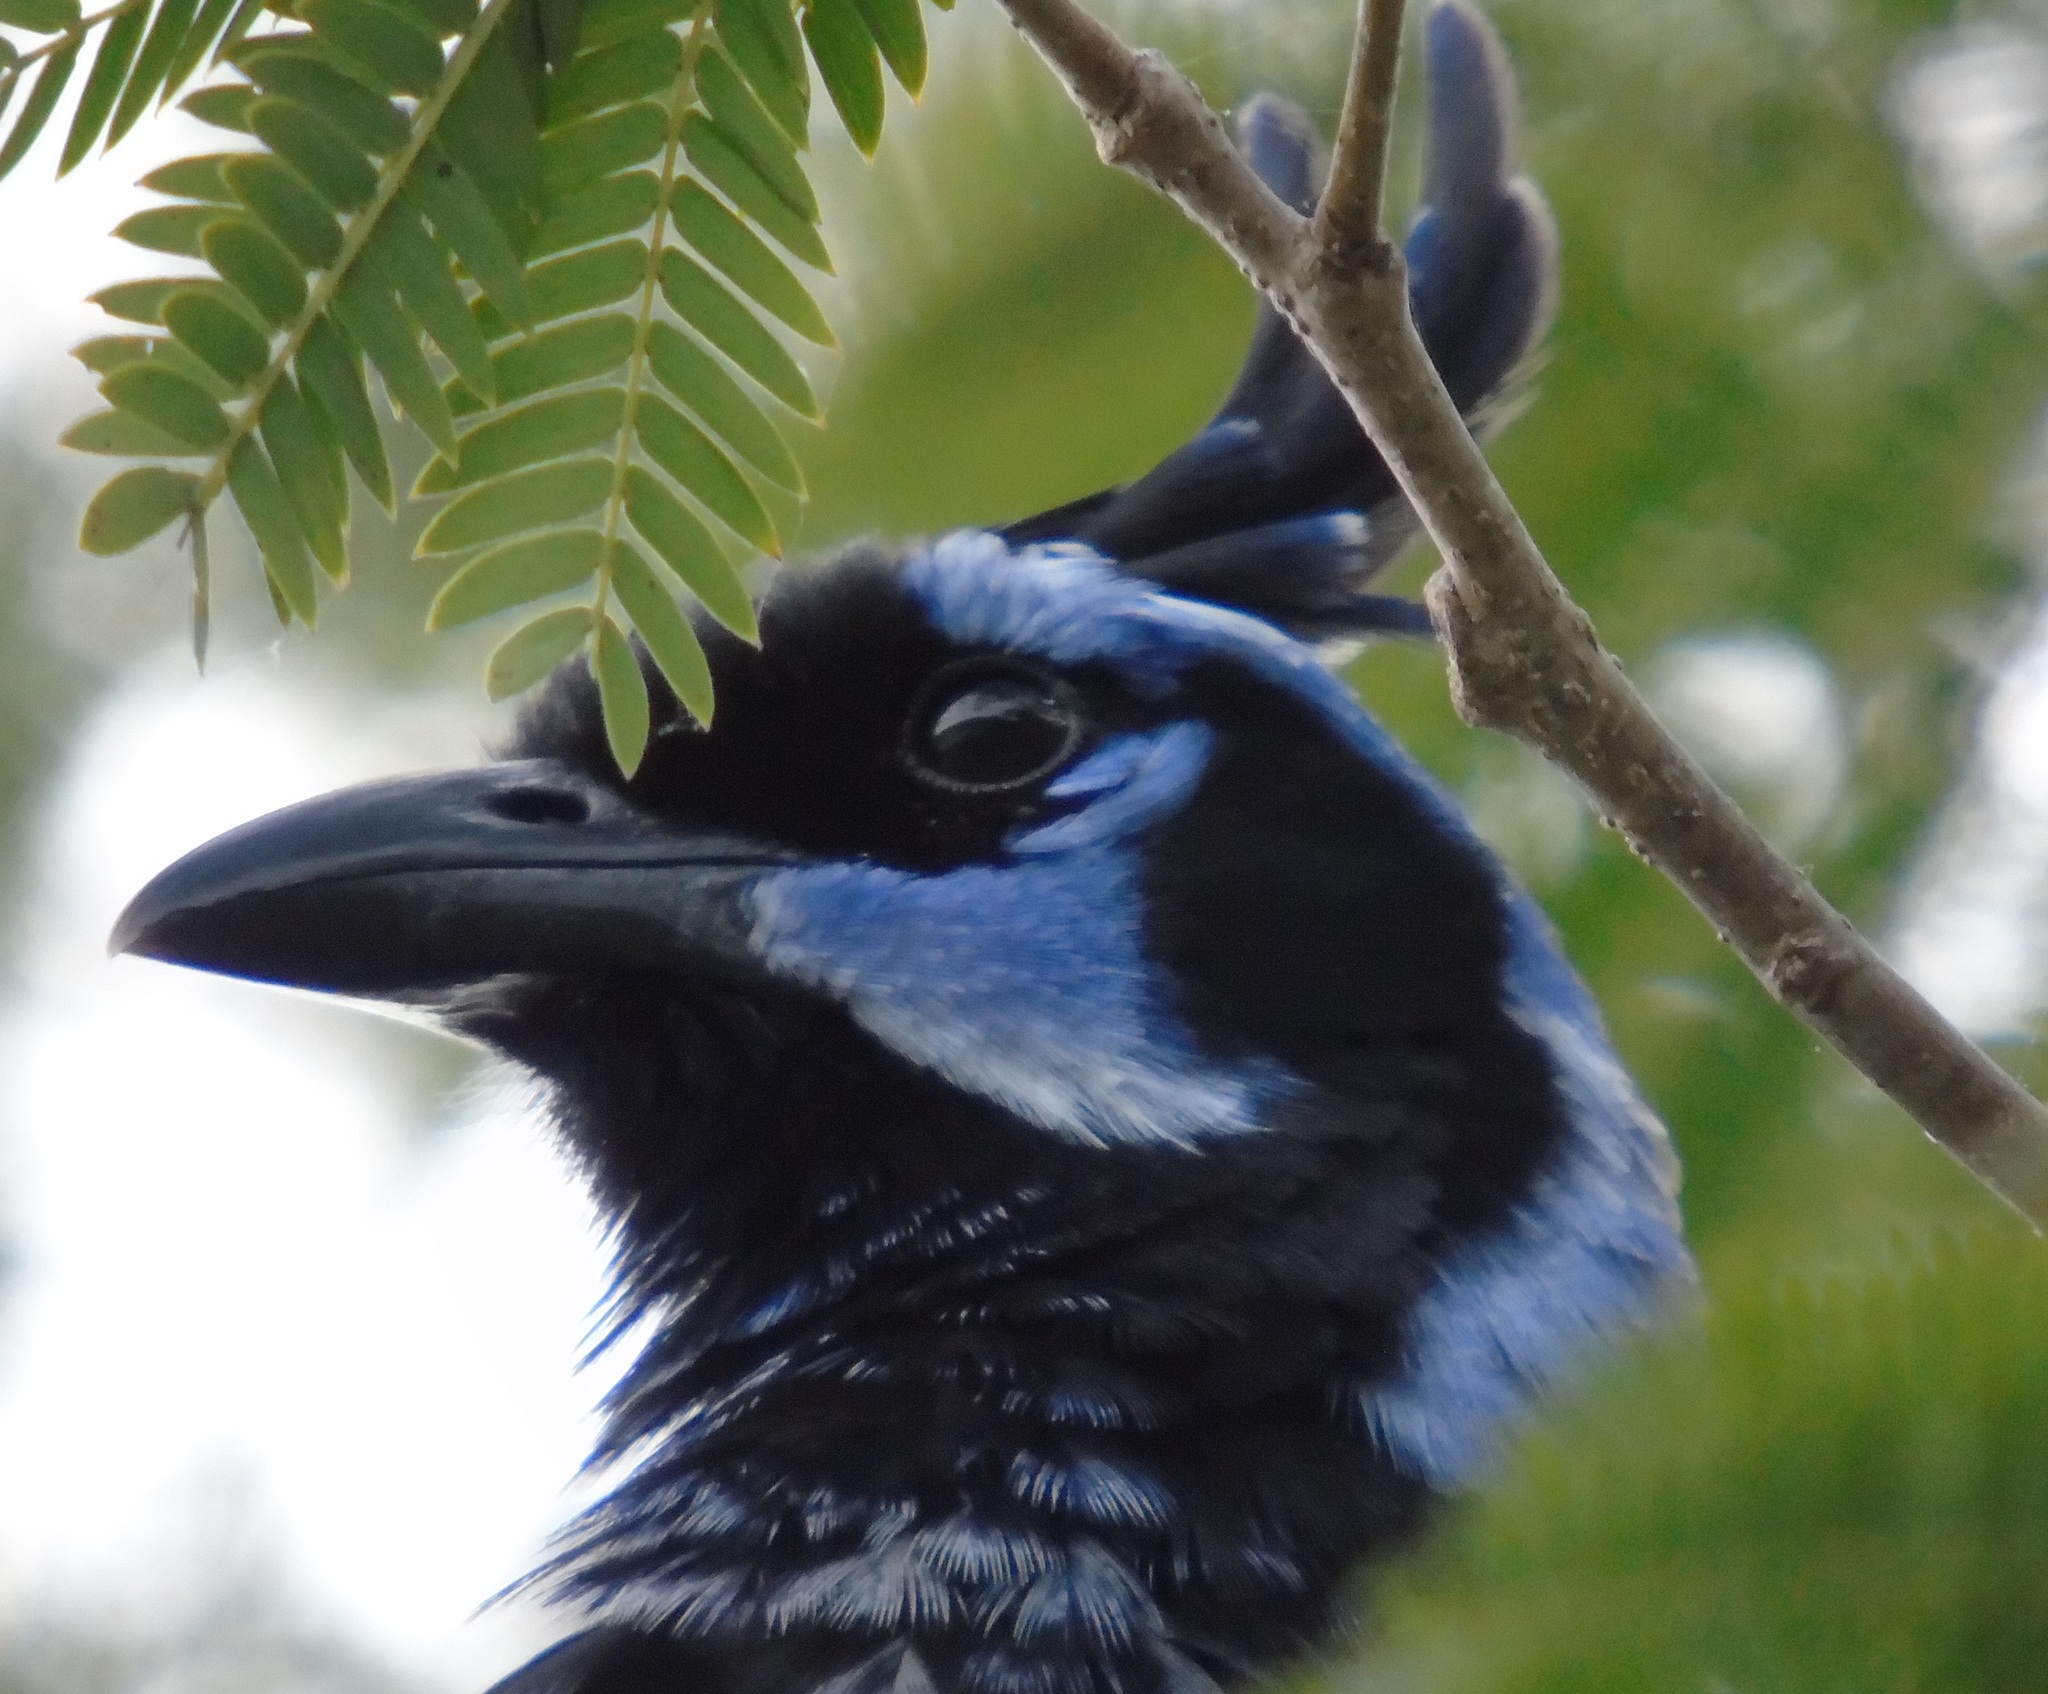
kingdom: Animalia
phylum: Chordata
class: Aves
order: Passeriformes
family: Corvidae
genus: Calocitta
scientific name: Calocitta colliei
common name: Black-throated magpie-jay
